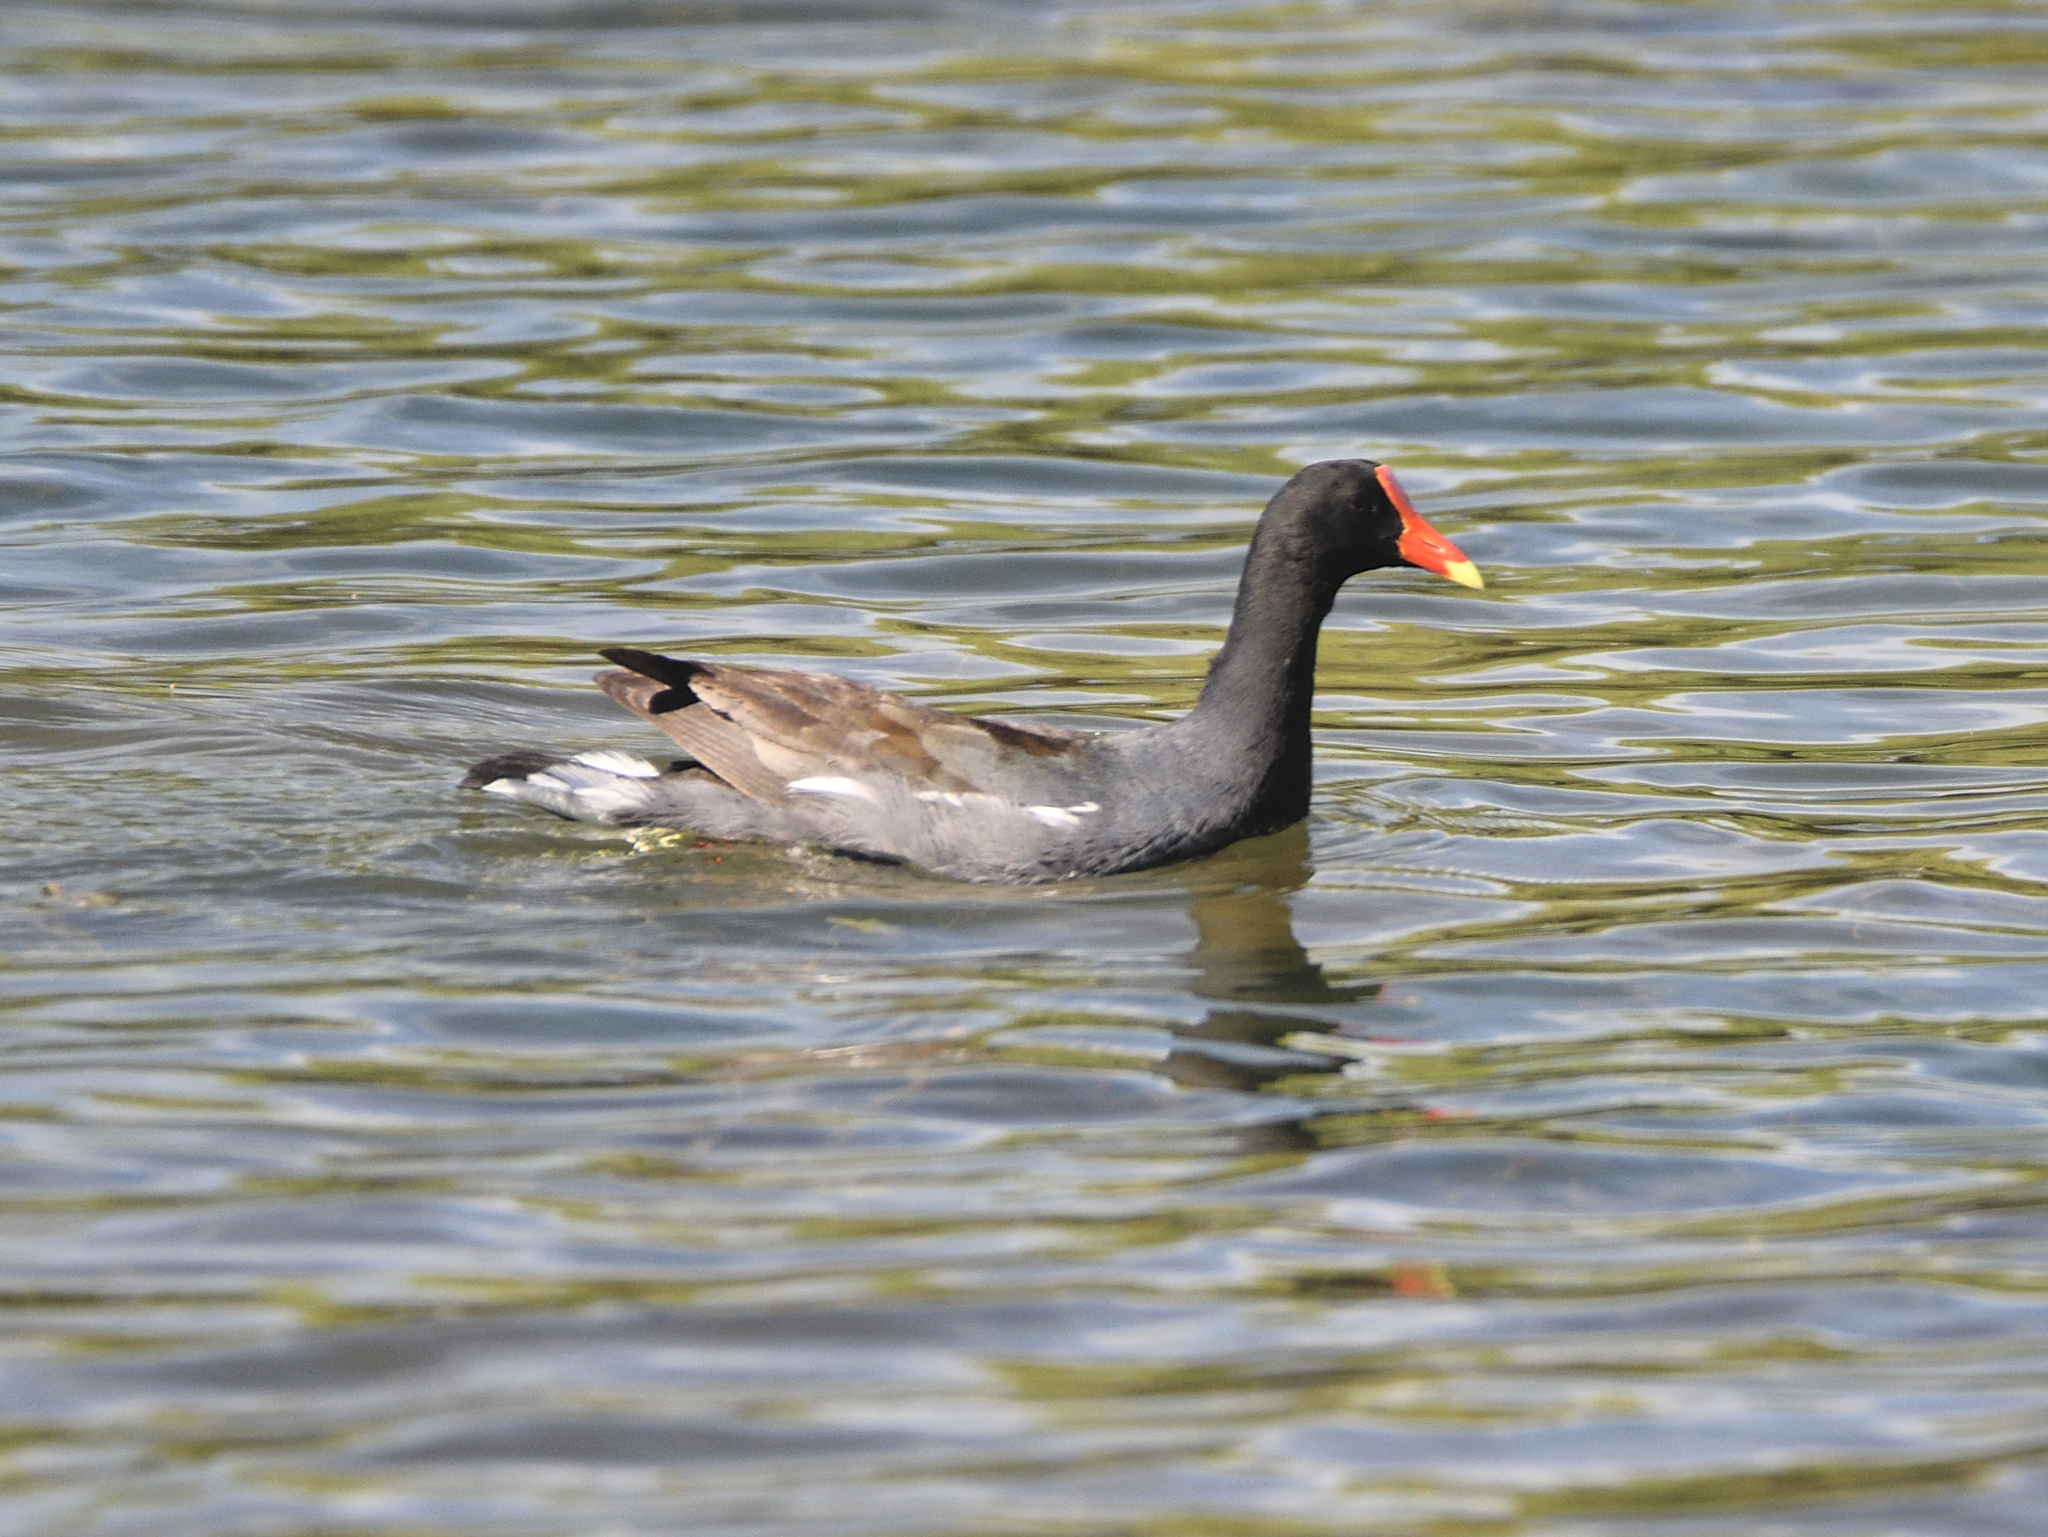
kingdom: Animalia
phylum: Chordata
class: Aves
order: Gruiformes
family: Rallidae
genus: Gallinula
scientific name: Gallinula chloropus
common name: Common moorhen
